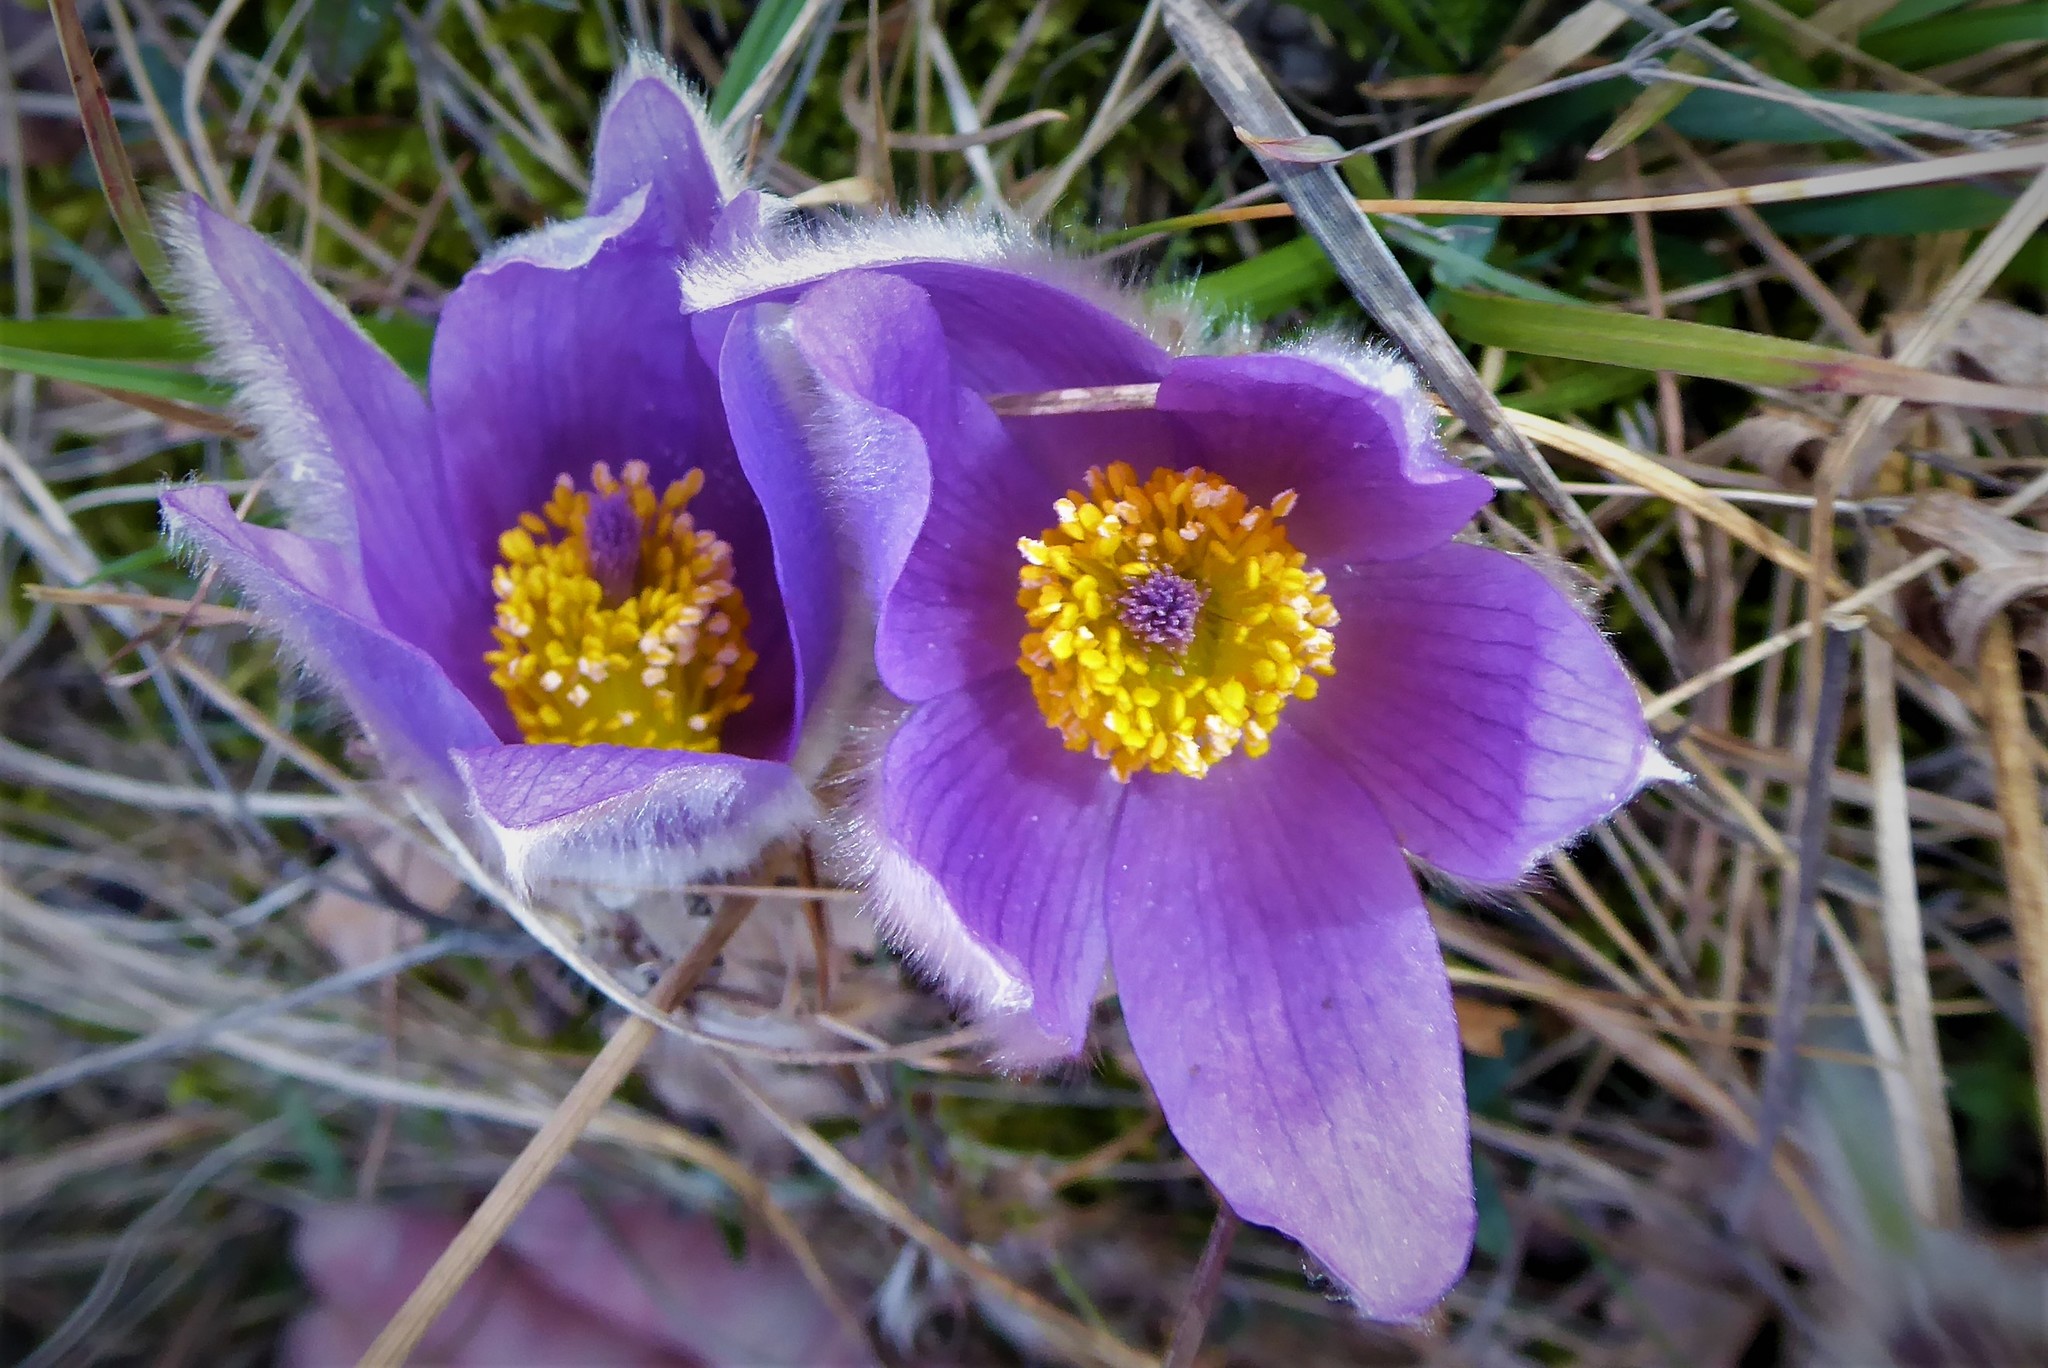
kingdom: Plantae
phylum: Tracheophyta
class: Magnoliopsida
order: Ranunculales
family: Ranunculaceae
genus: Pulsatilla
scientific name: Pulsatilla grandis
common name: Greater pasque flower
